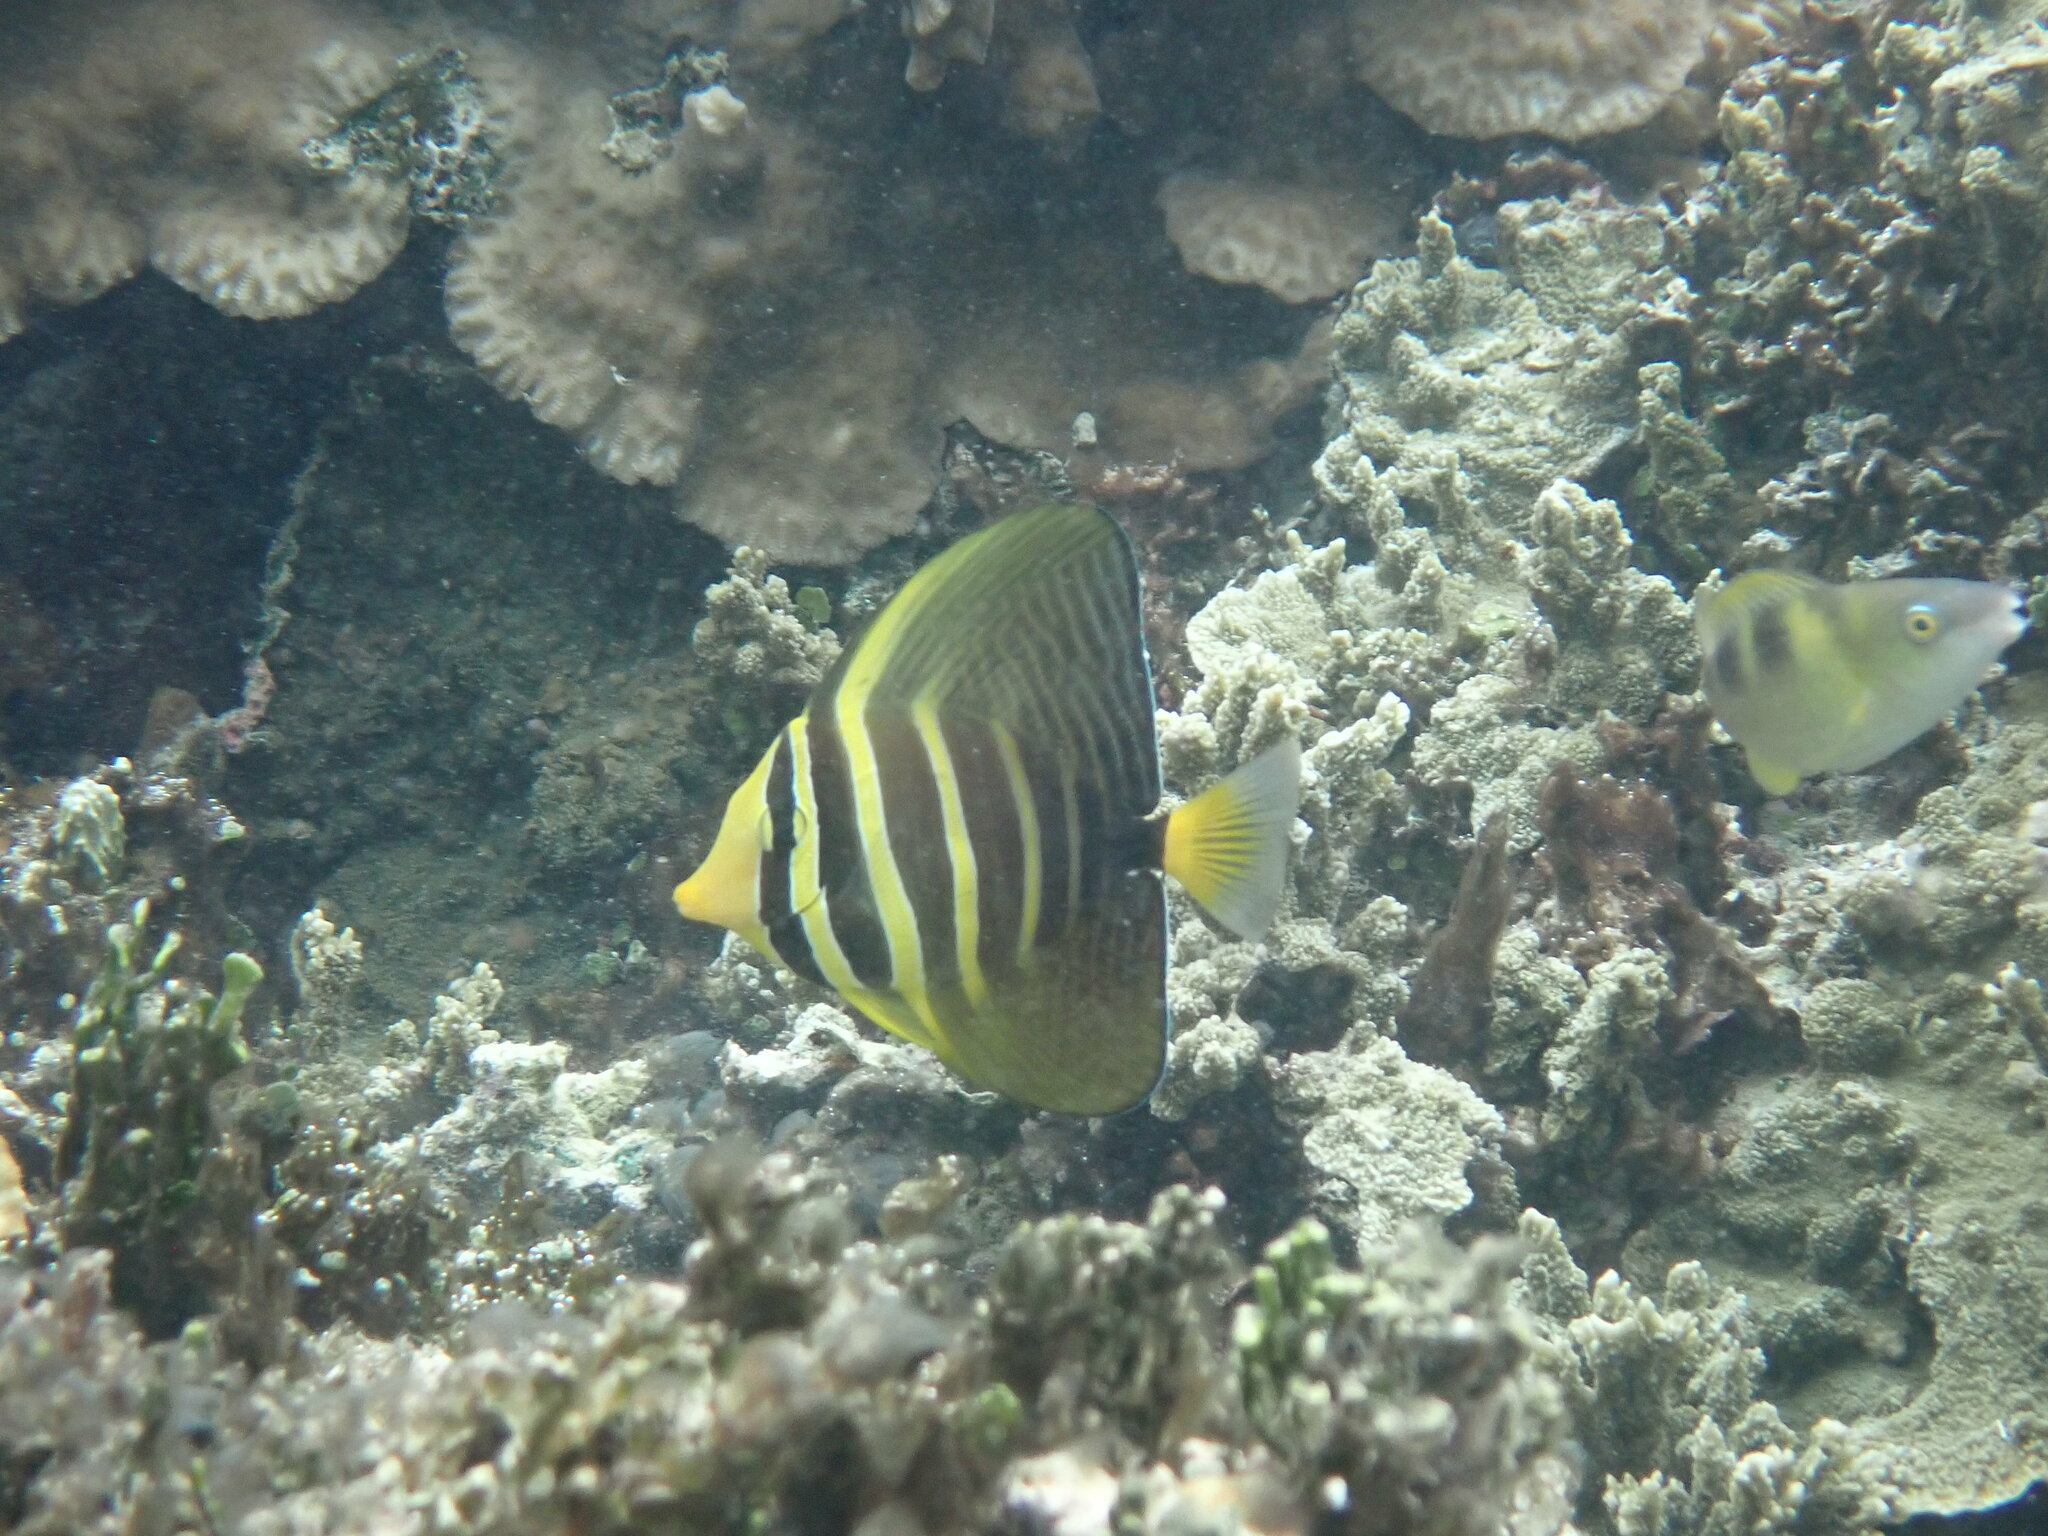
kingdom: Animalia
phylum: Chordata
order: Perciformes
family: Acanthuridae
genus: Zebrasoma
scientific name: Zebrasoma veliferum
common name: Sailfin surgeonfish
